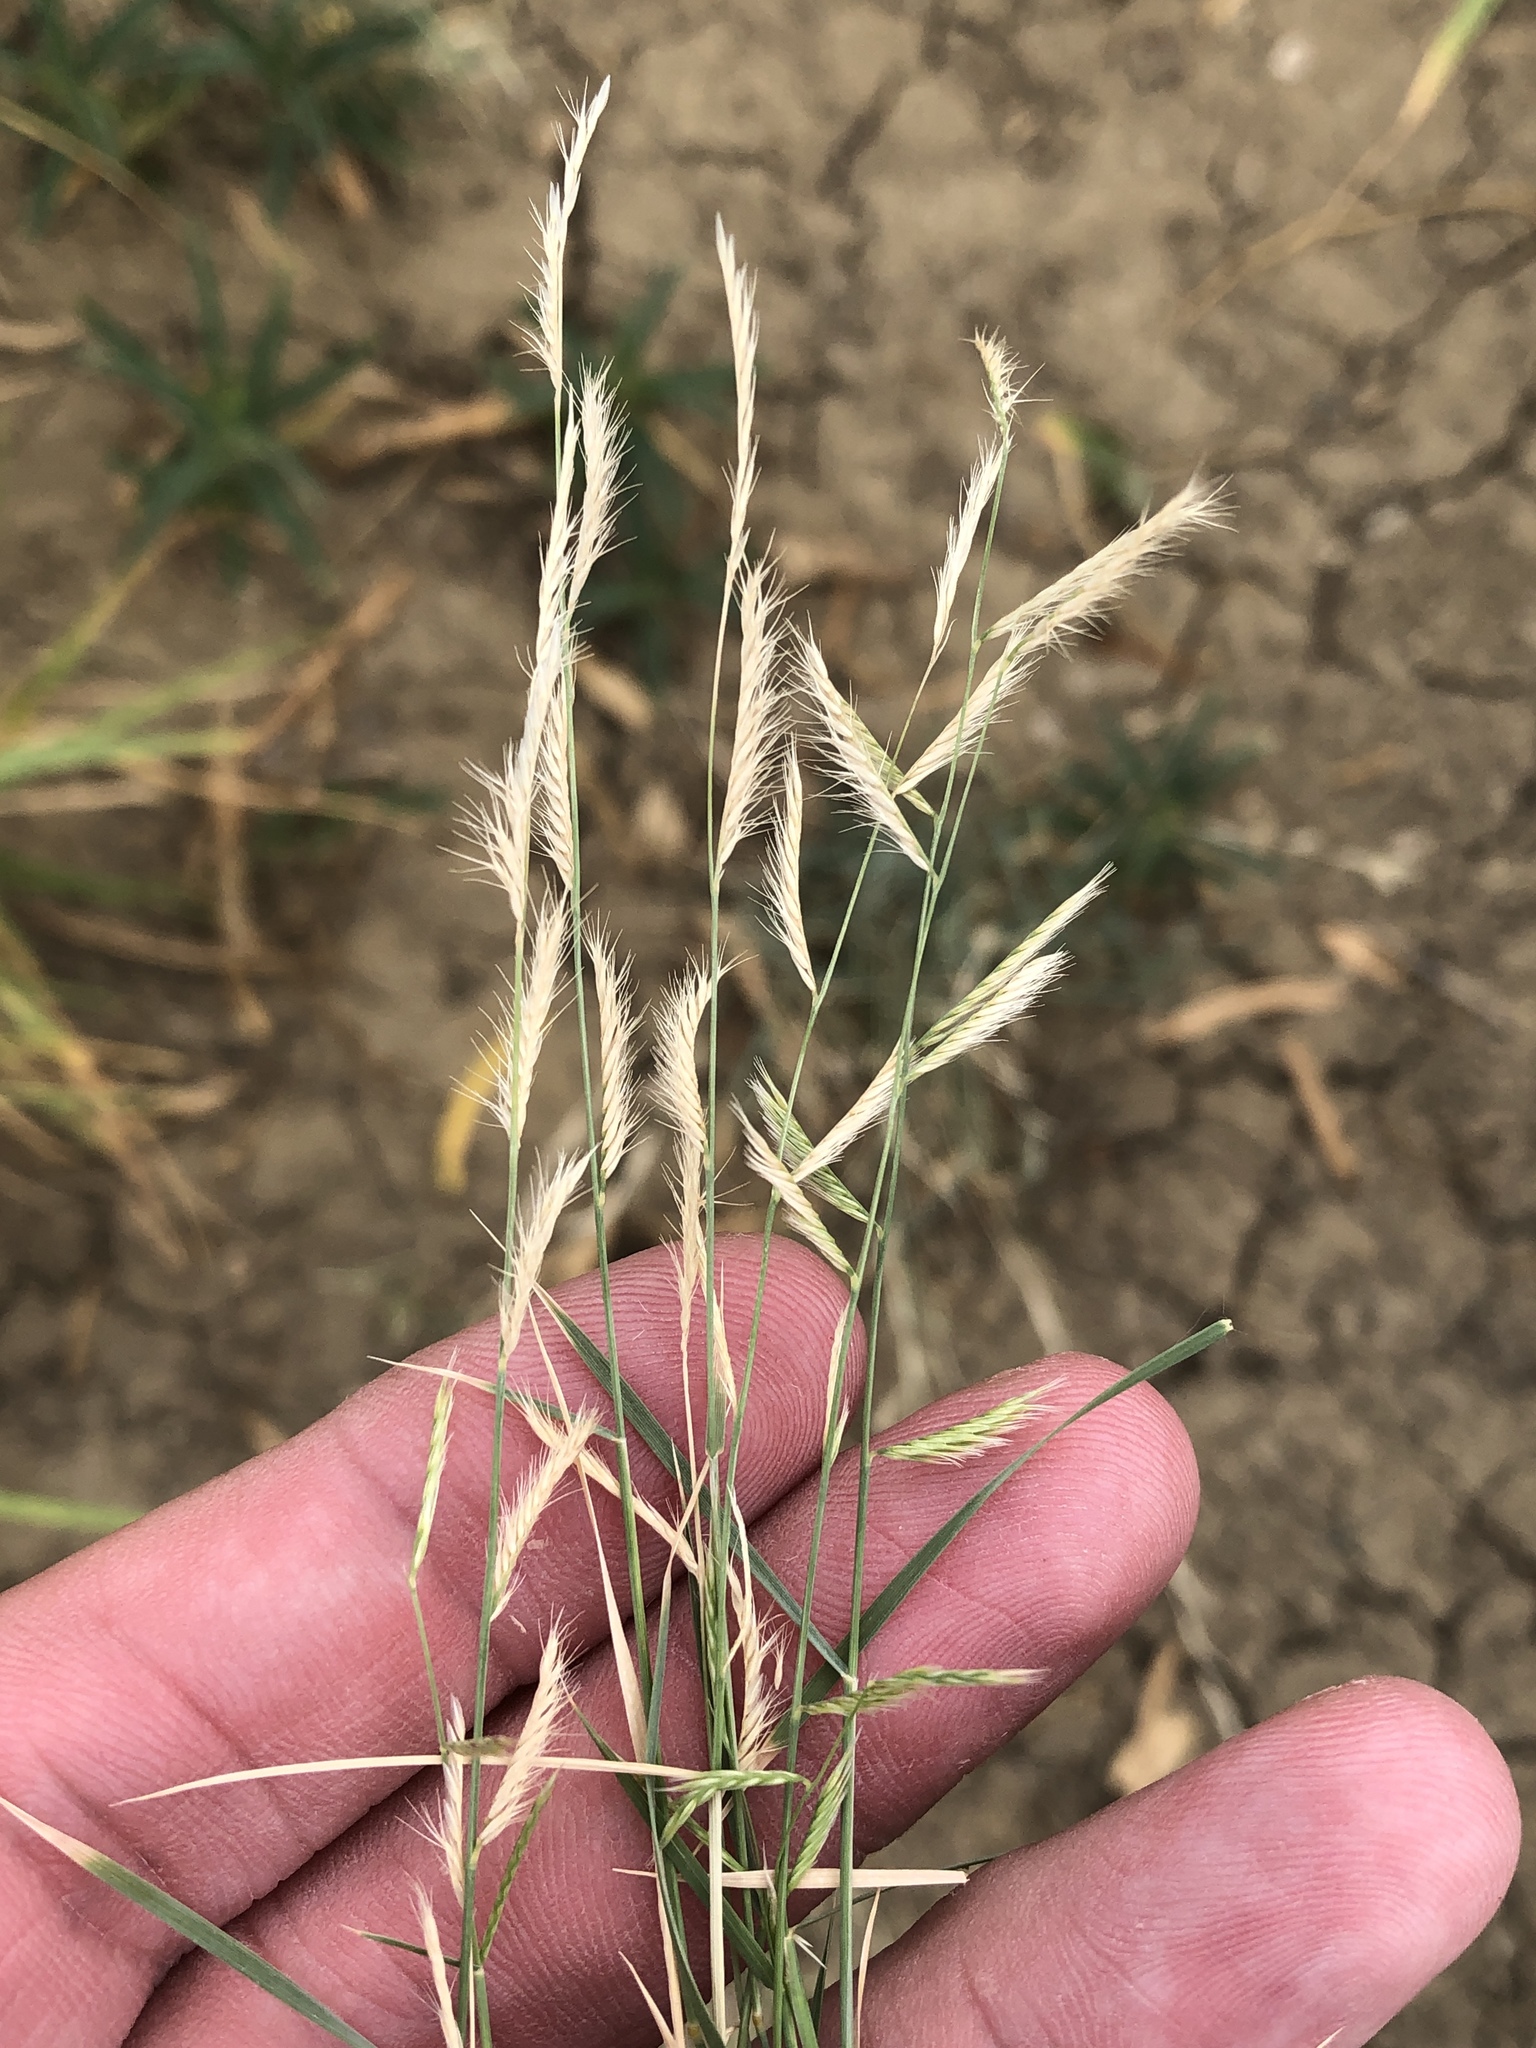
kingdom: Plantae
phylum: Tracheophyta
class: Liliopsida
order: Poales
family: Poaceae
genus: Bouteloua
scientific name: Bouteloua trifida
